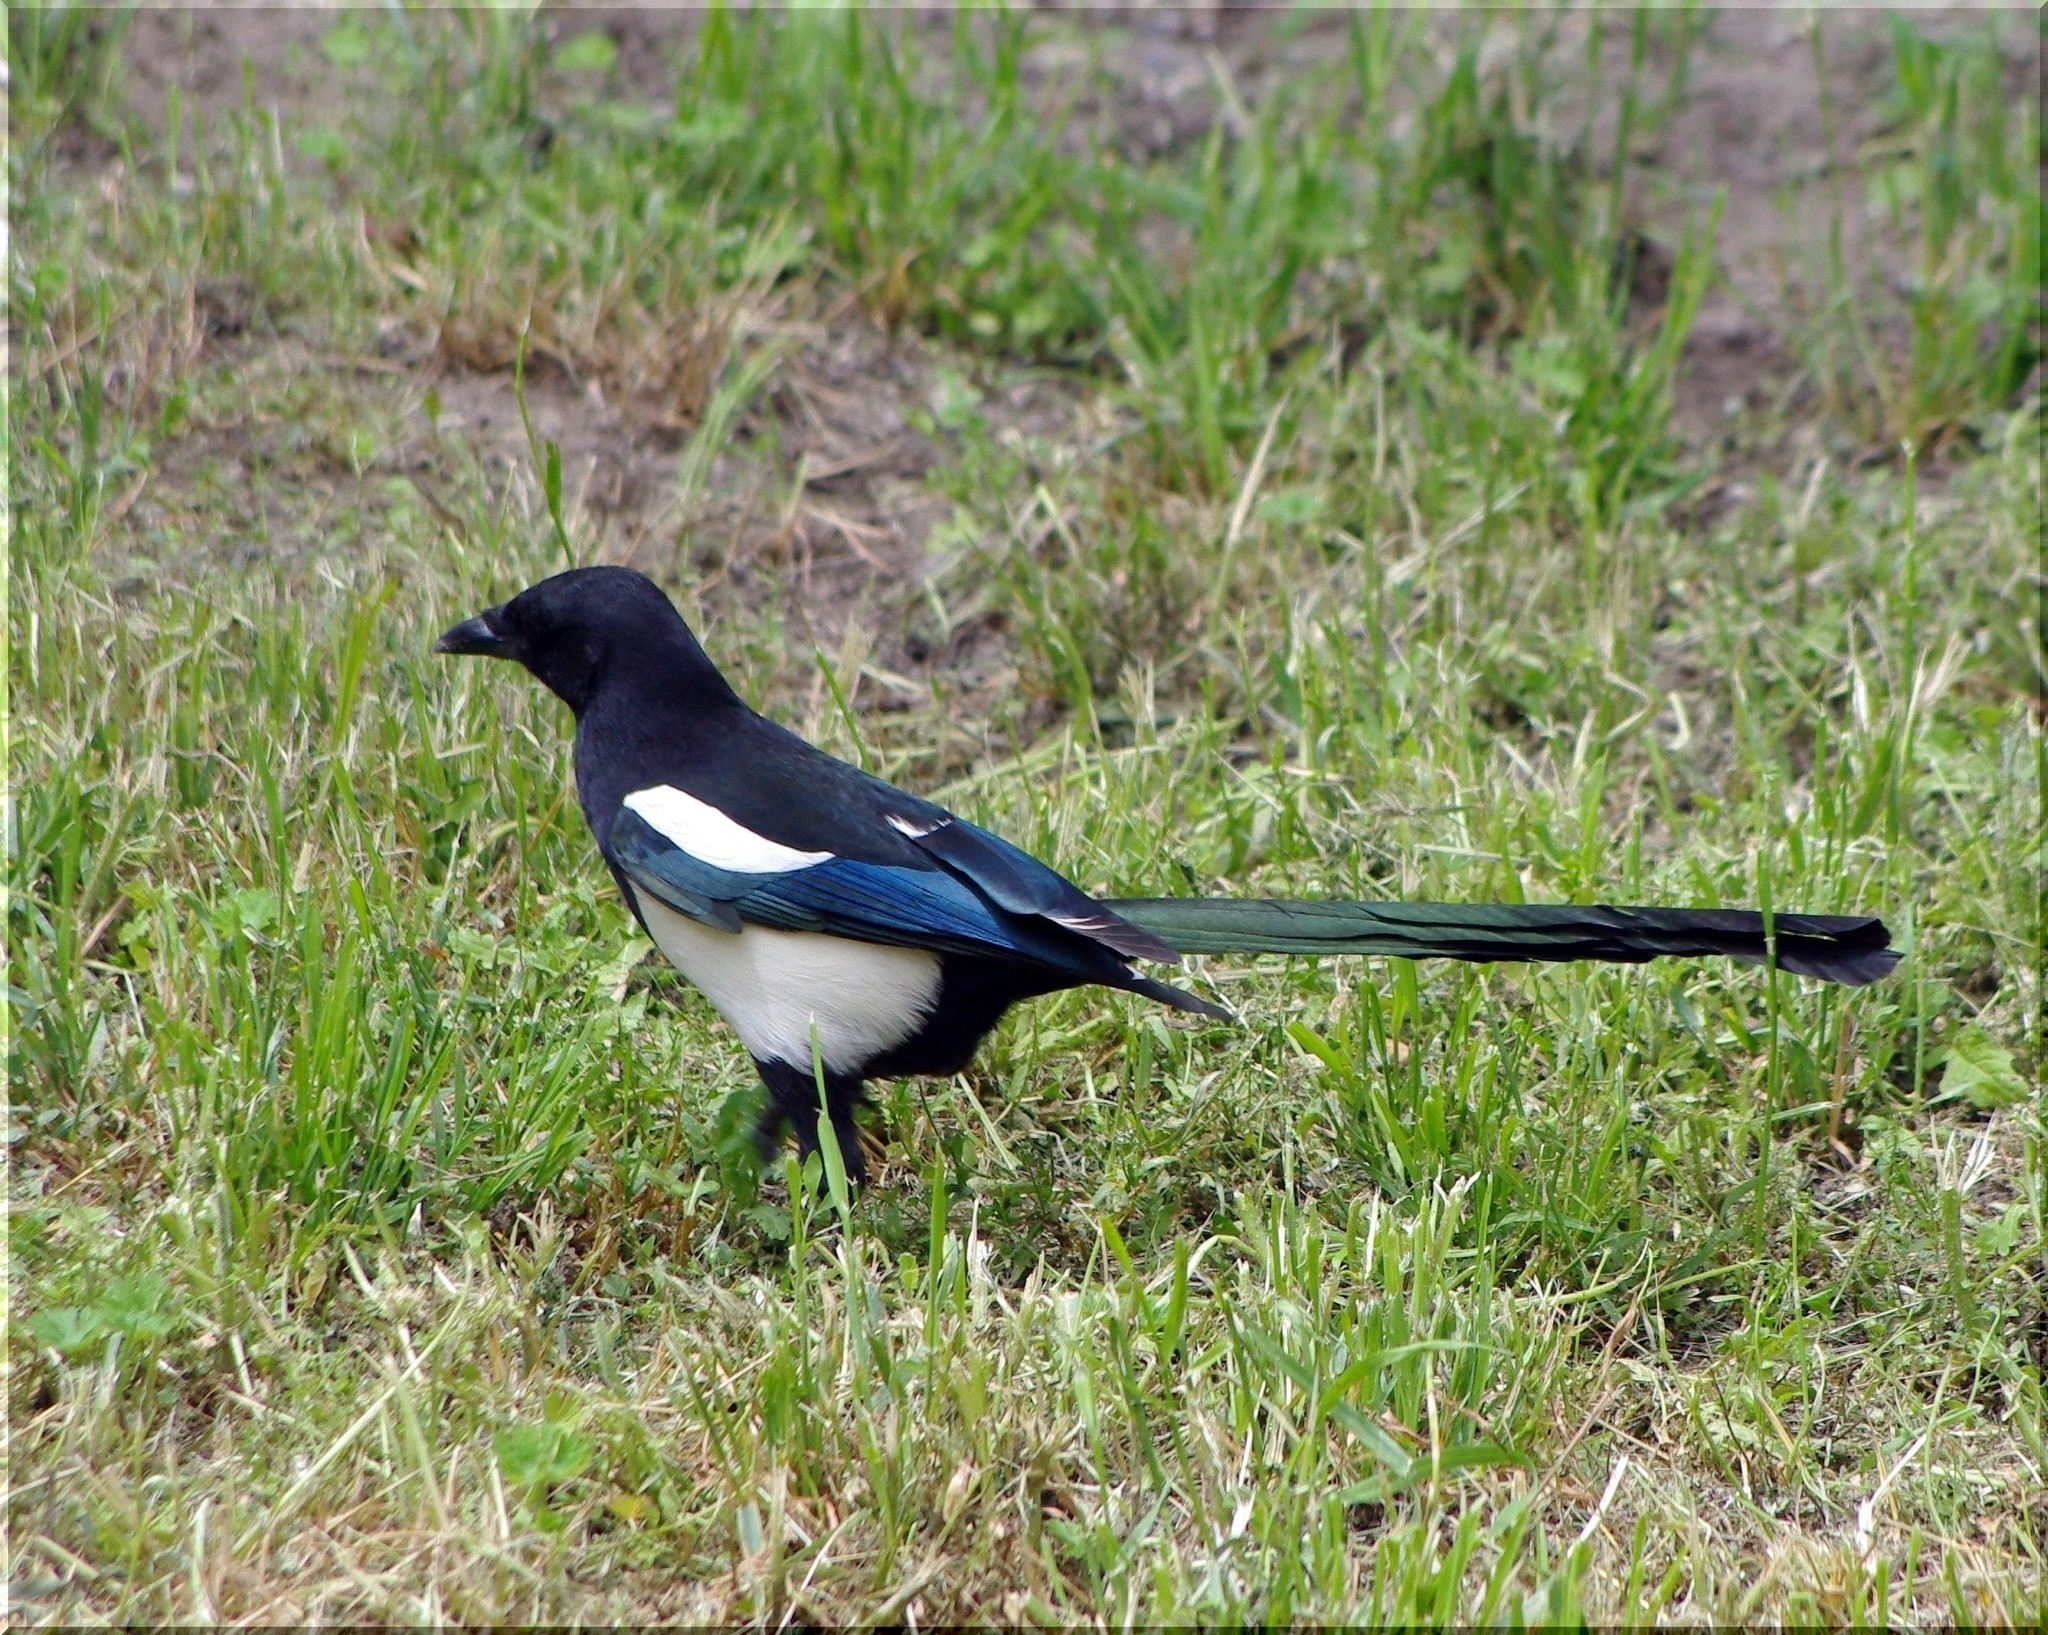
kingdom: Animalia
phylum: Chordata
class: Aves
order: Passeriformes
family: Corvidae
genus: Pica
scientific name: Pica pica
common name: Eurasian magpie
